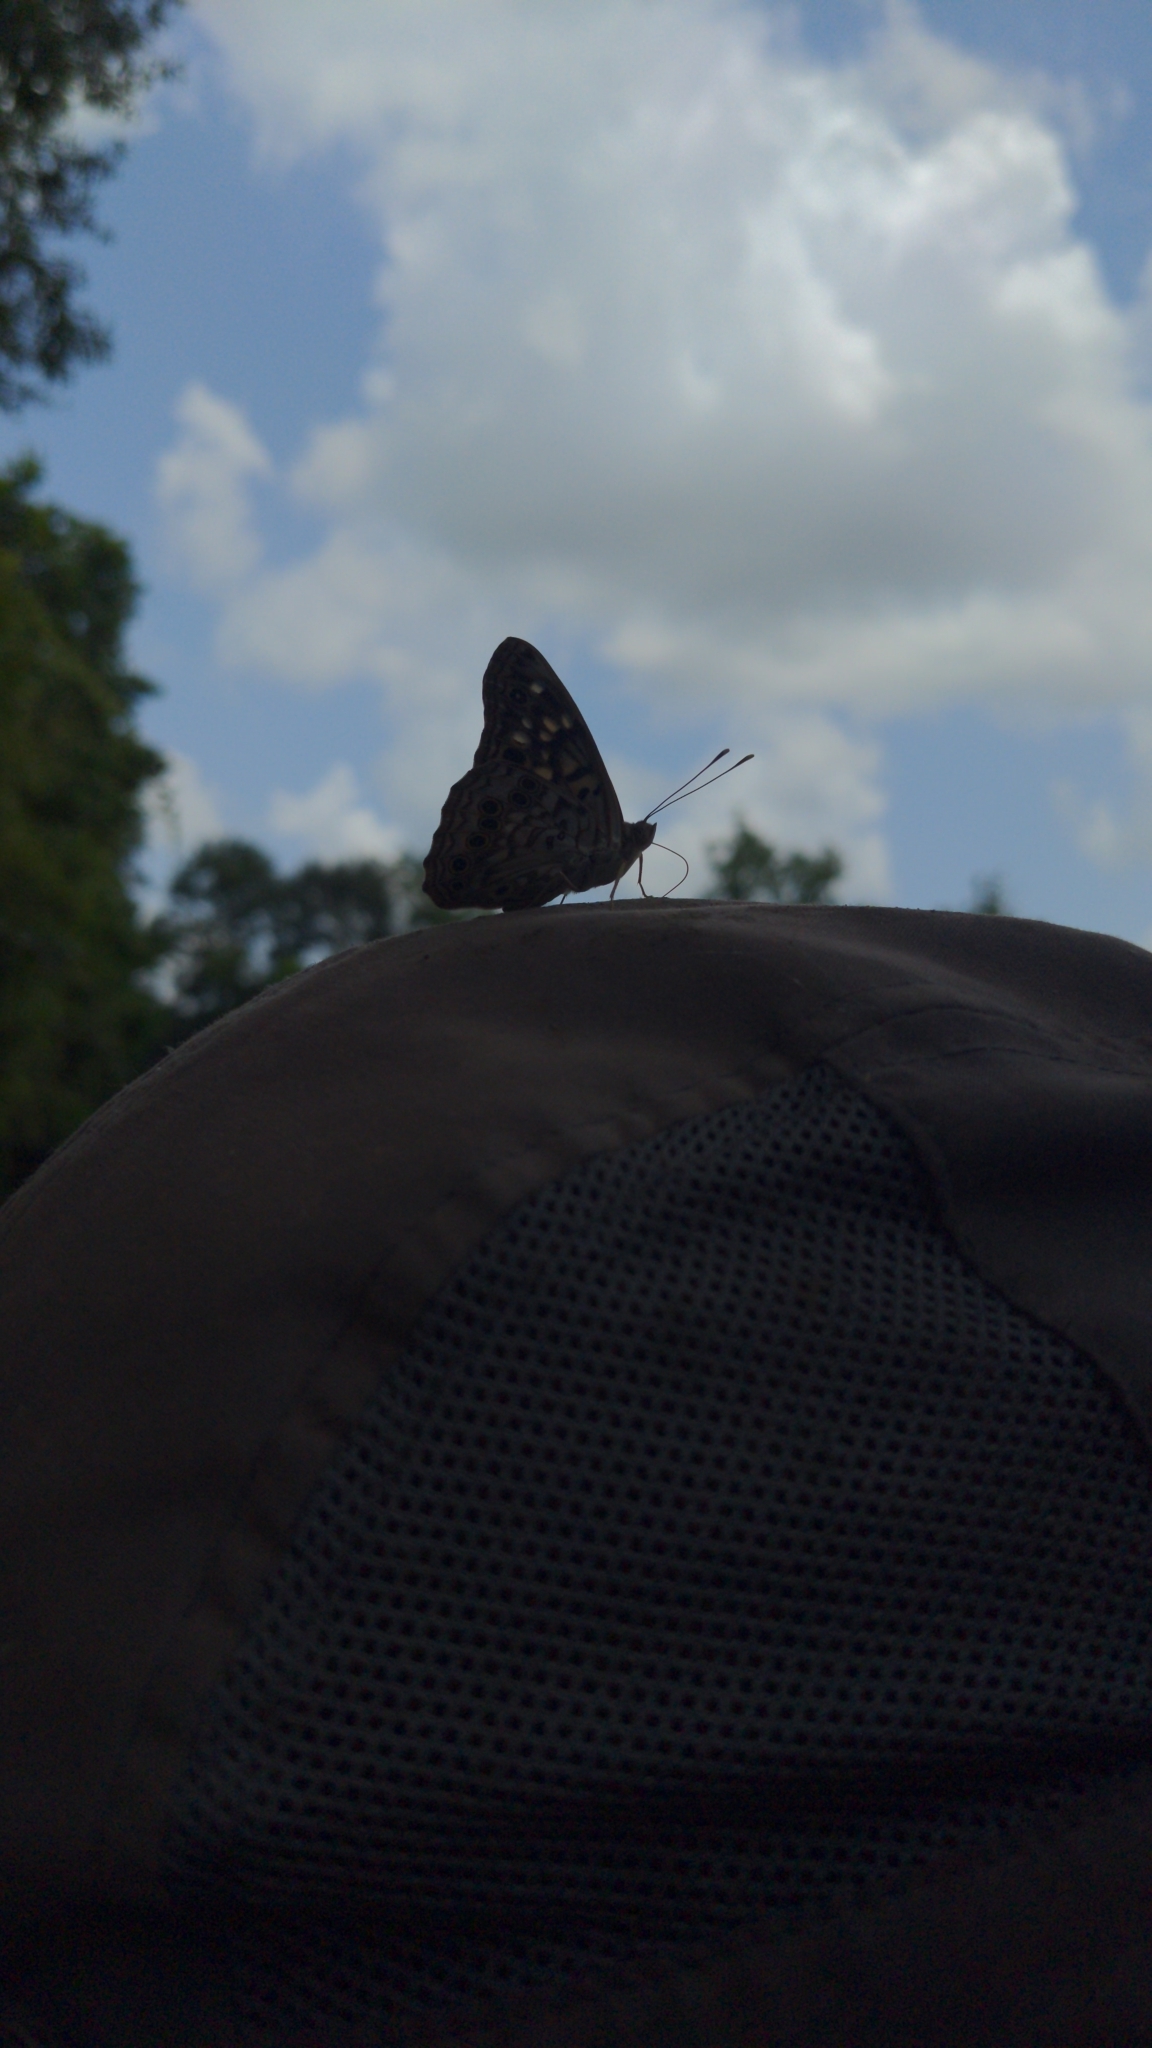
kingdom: Animalia
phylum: Arthropoda
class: Insecta
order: Lepidoptera
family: Nymphalidae
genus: Asterocampa
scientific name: Asterocampa celtis
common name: Hackberry emperor
